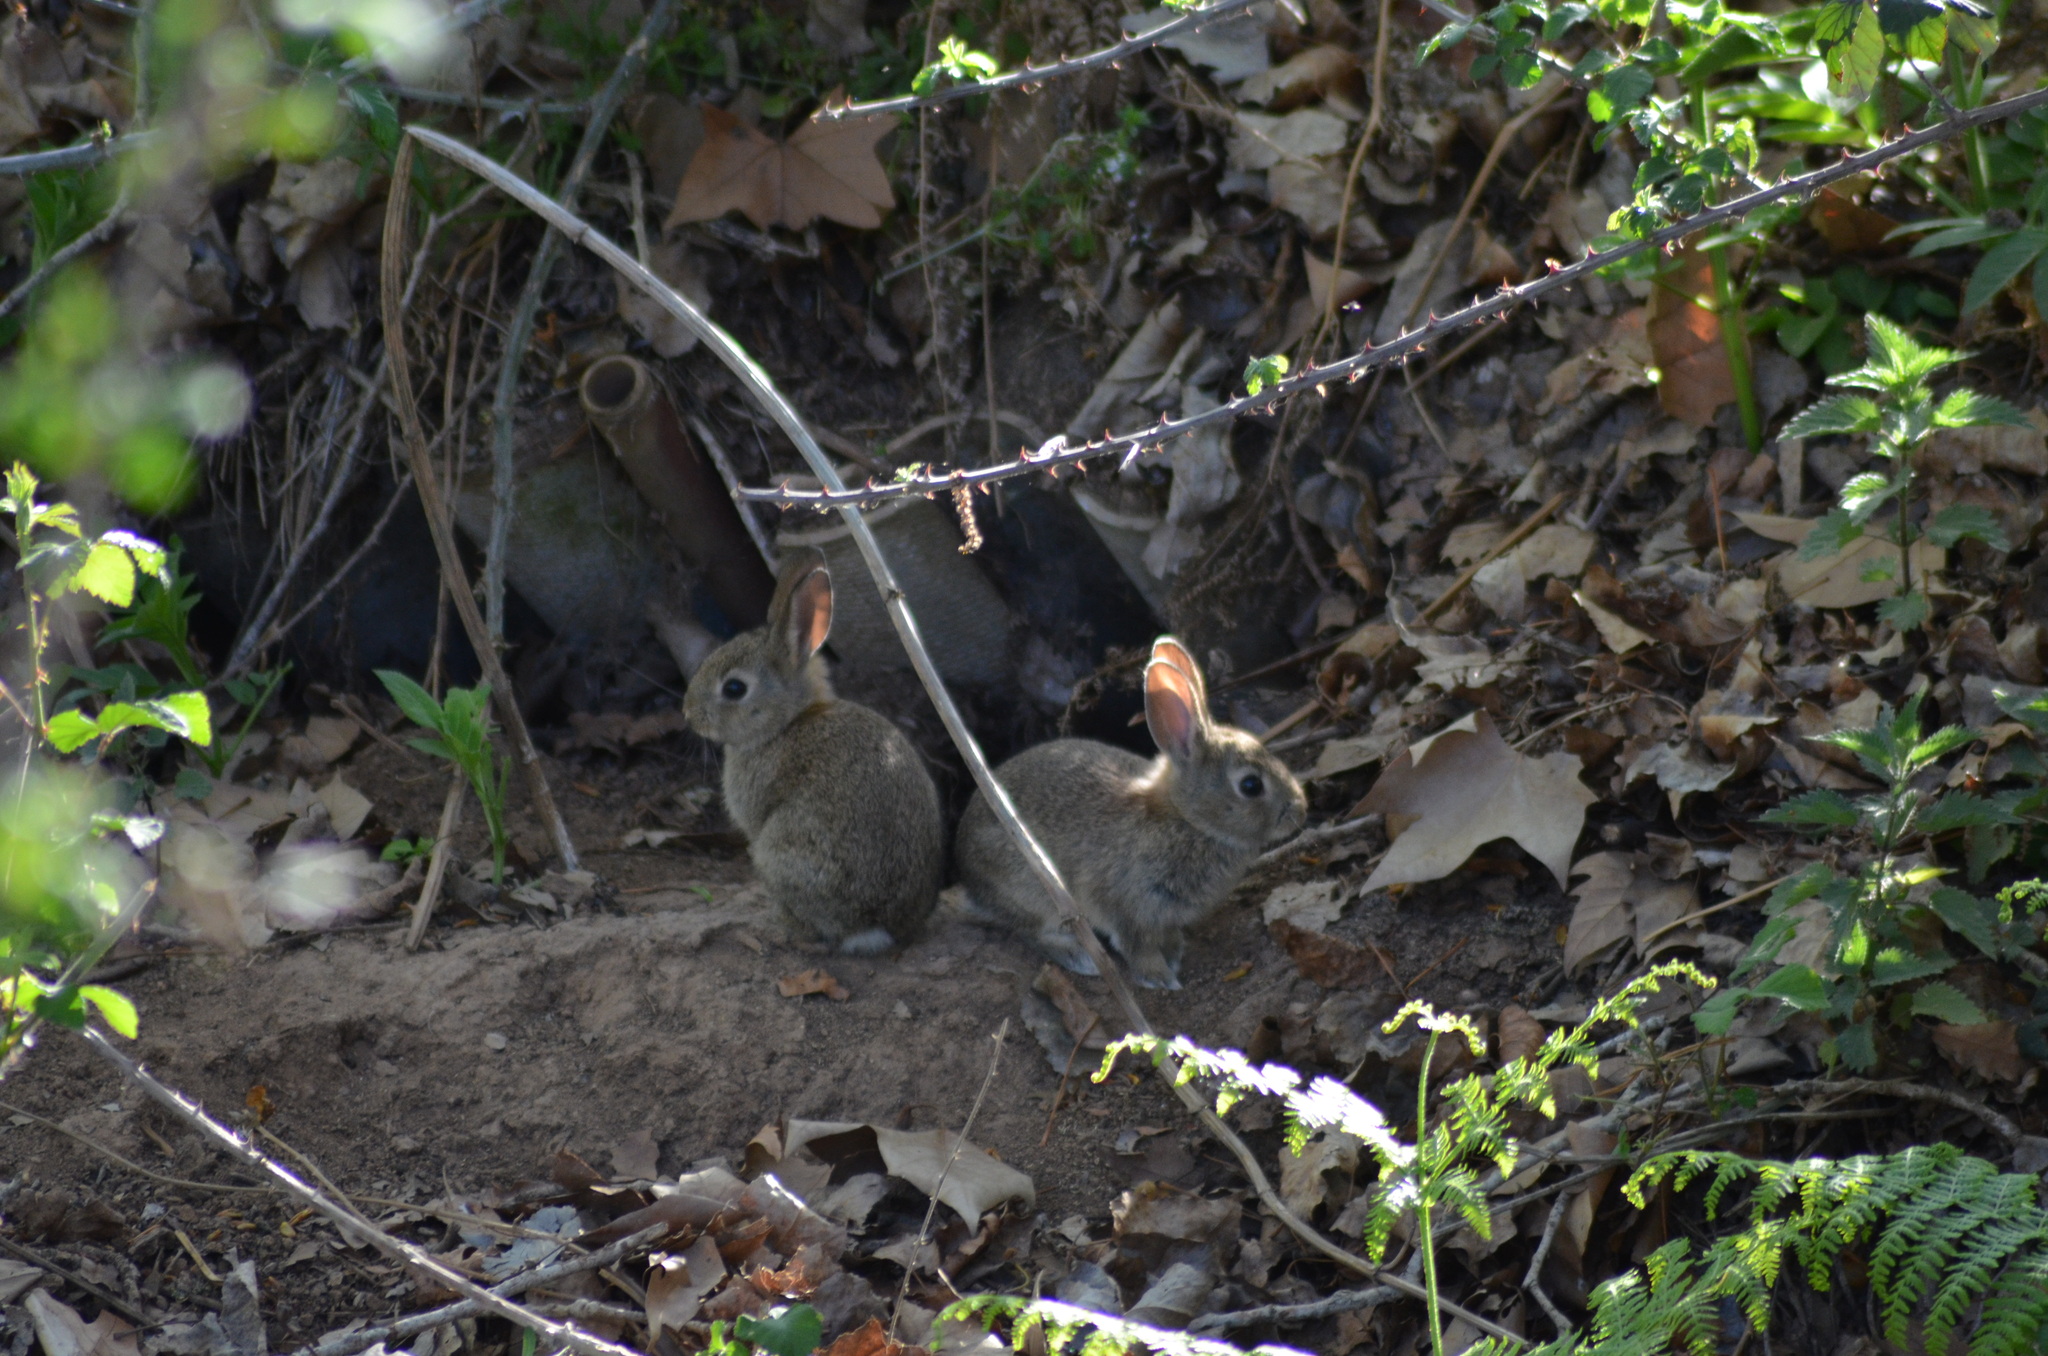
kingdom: Animalia
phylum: Chordata
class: Mammalia
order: Lagomorpha
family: Leporidae
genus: Oryctolagus
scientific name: Oryctolagus cuniculus
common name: European rabbit
